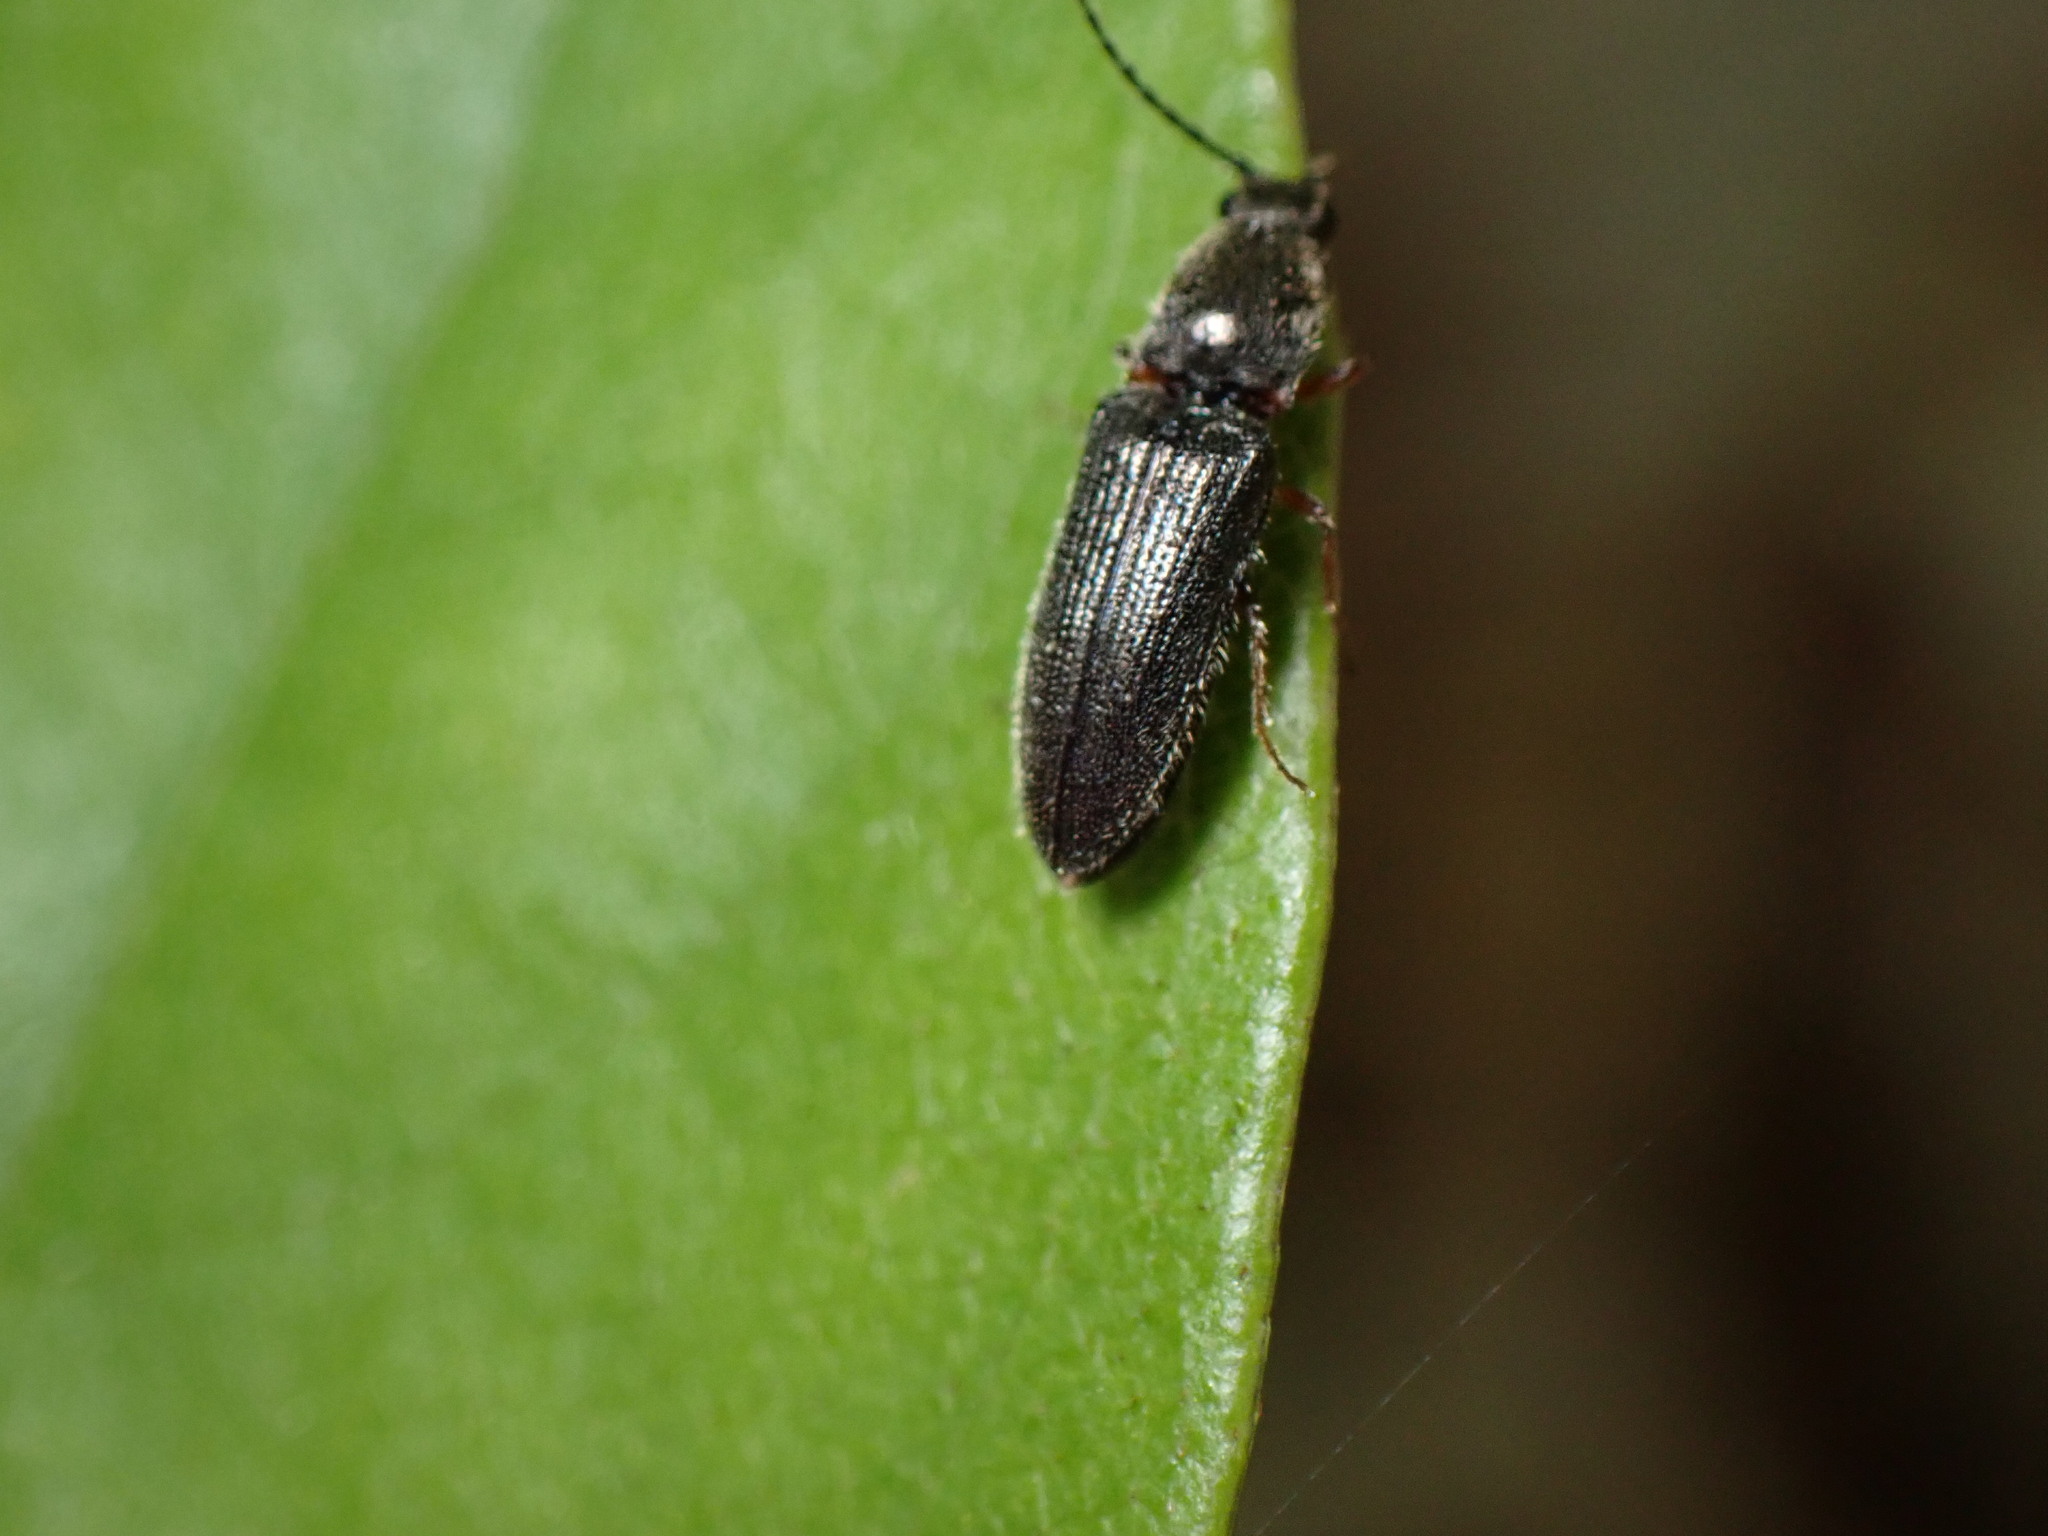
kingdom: Animalia
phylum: Arthropoda
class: Insecta
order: Coleoptera
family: Elateridae
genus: Limonius
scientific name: Limonius basilaris
